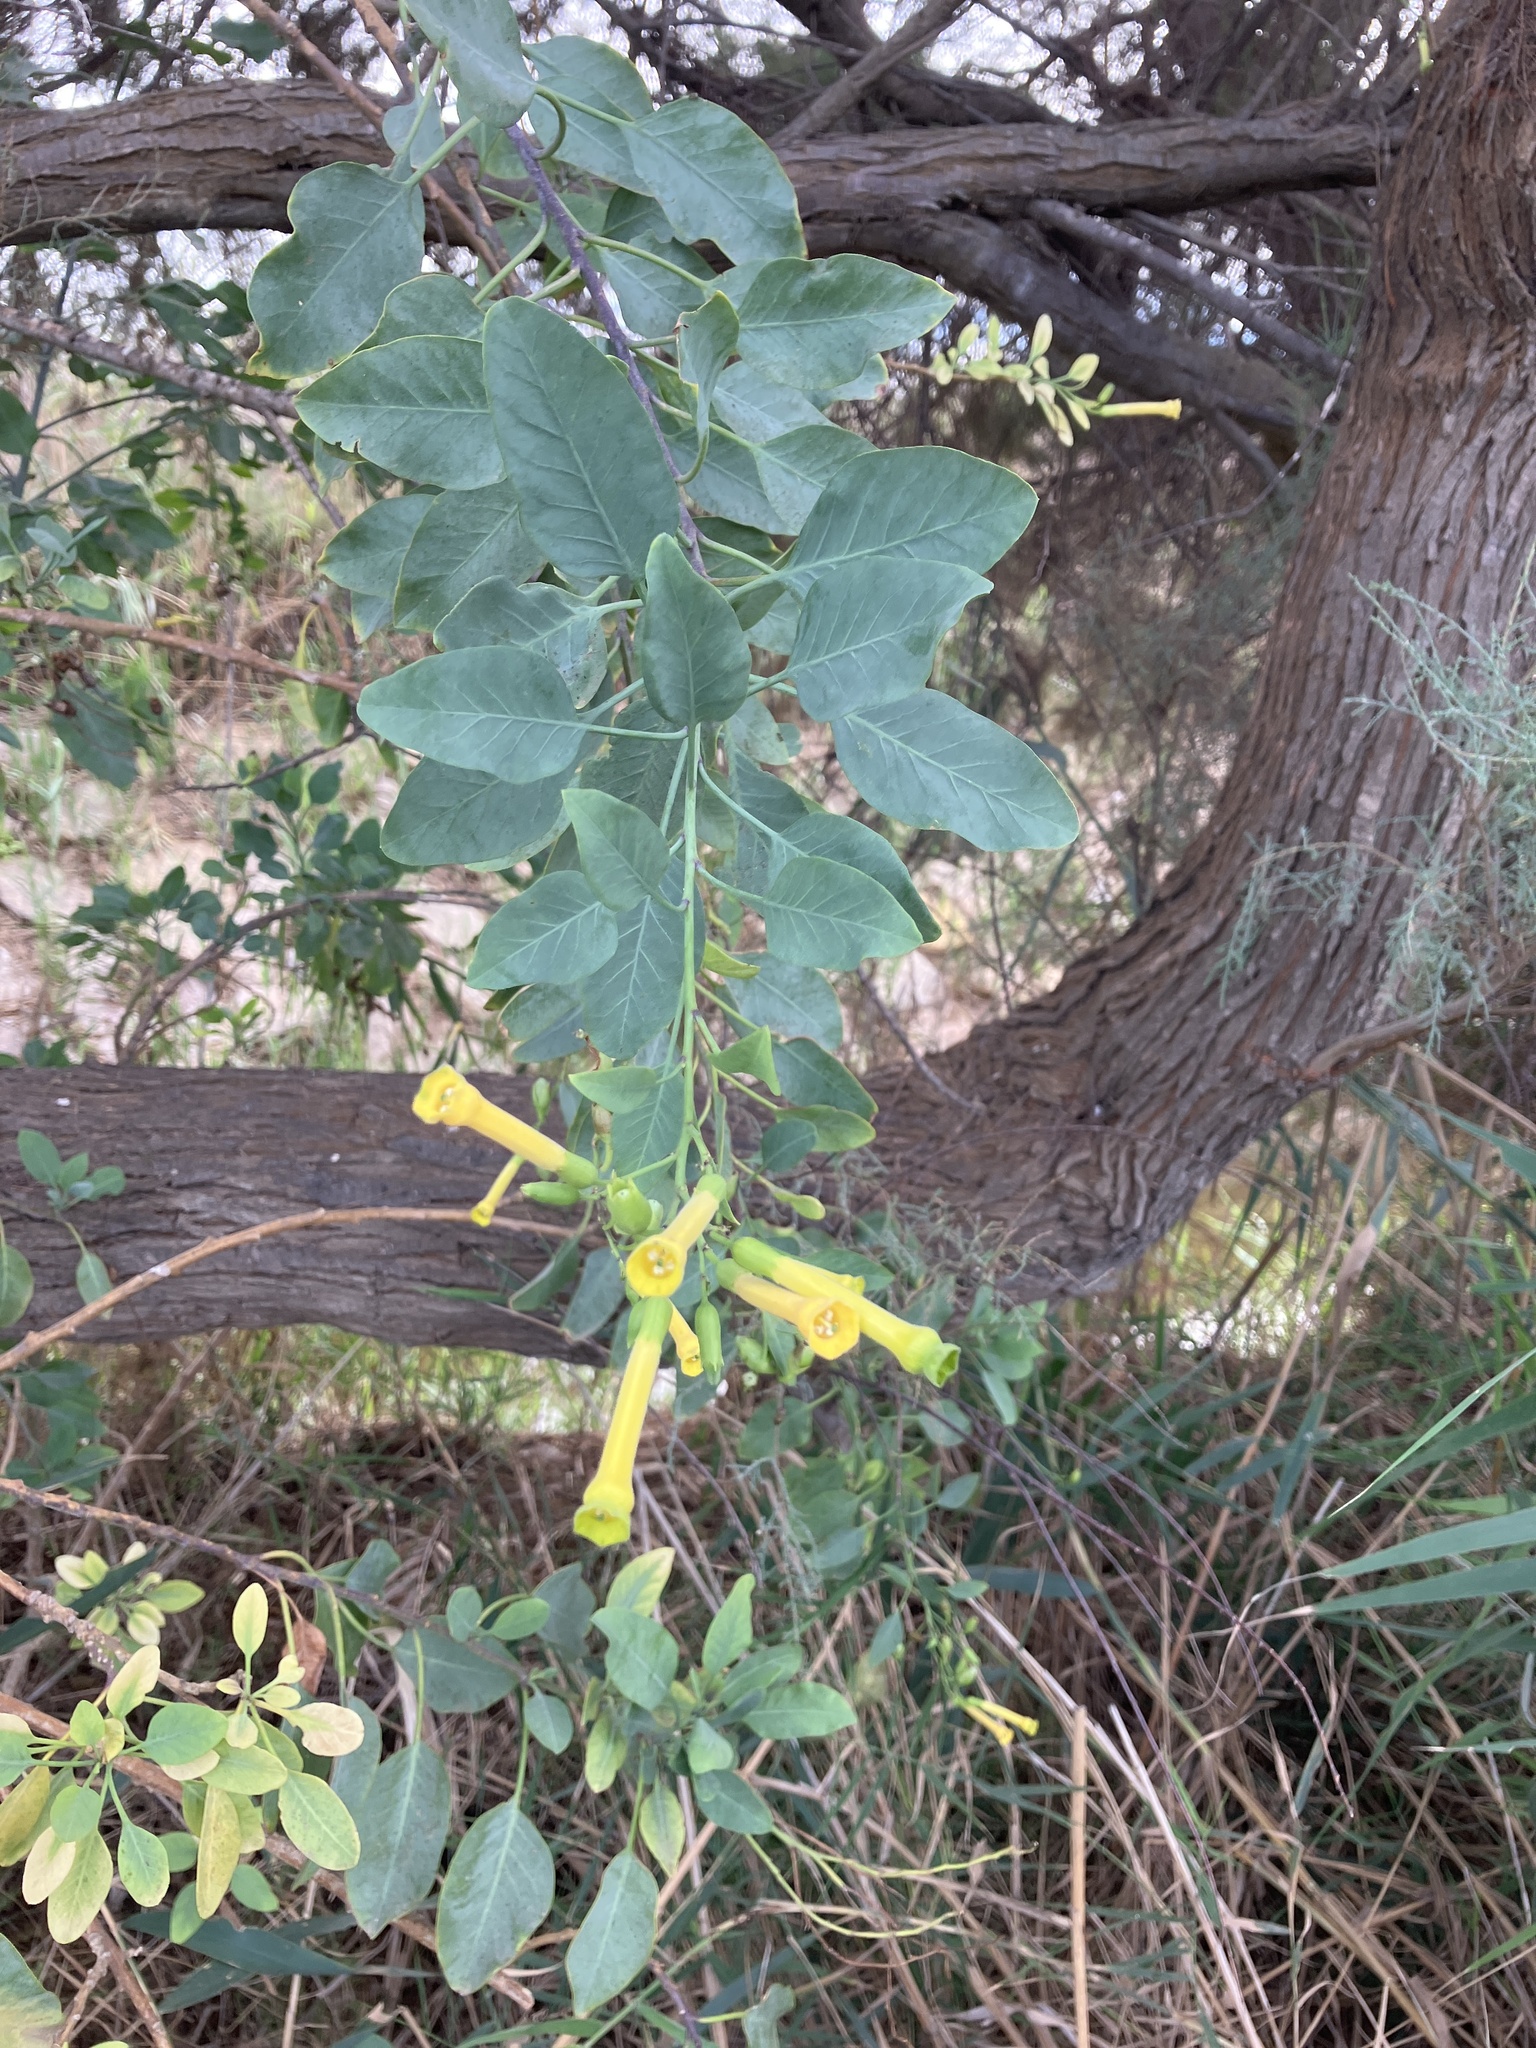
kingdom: Plantae
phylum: Tracheophyta
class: Magnoliopsida
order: Solanales
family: Solanaceae
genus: Nicotiana
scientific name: Nicotiana glauca
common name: Tree tobacco
